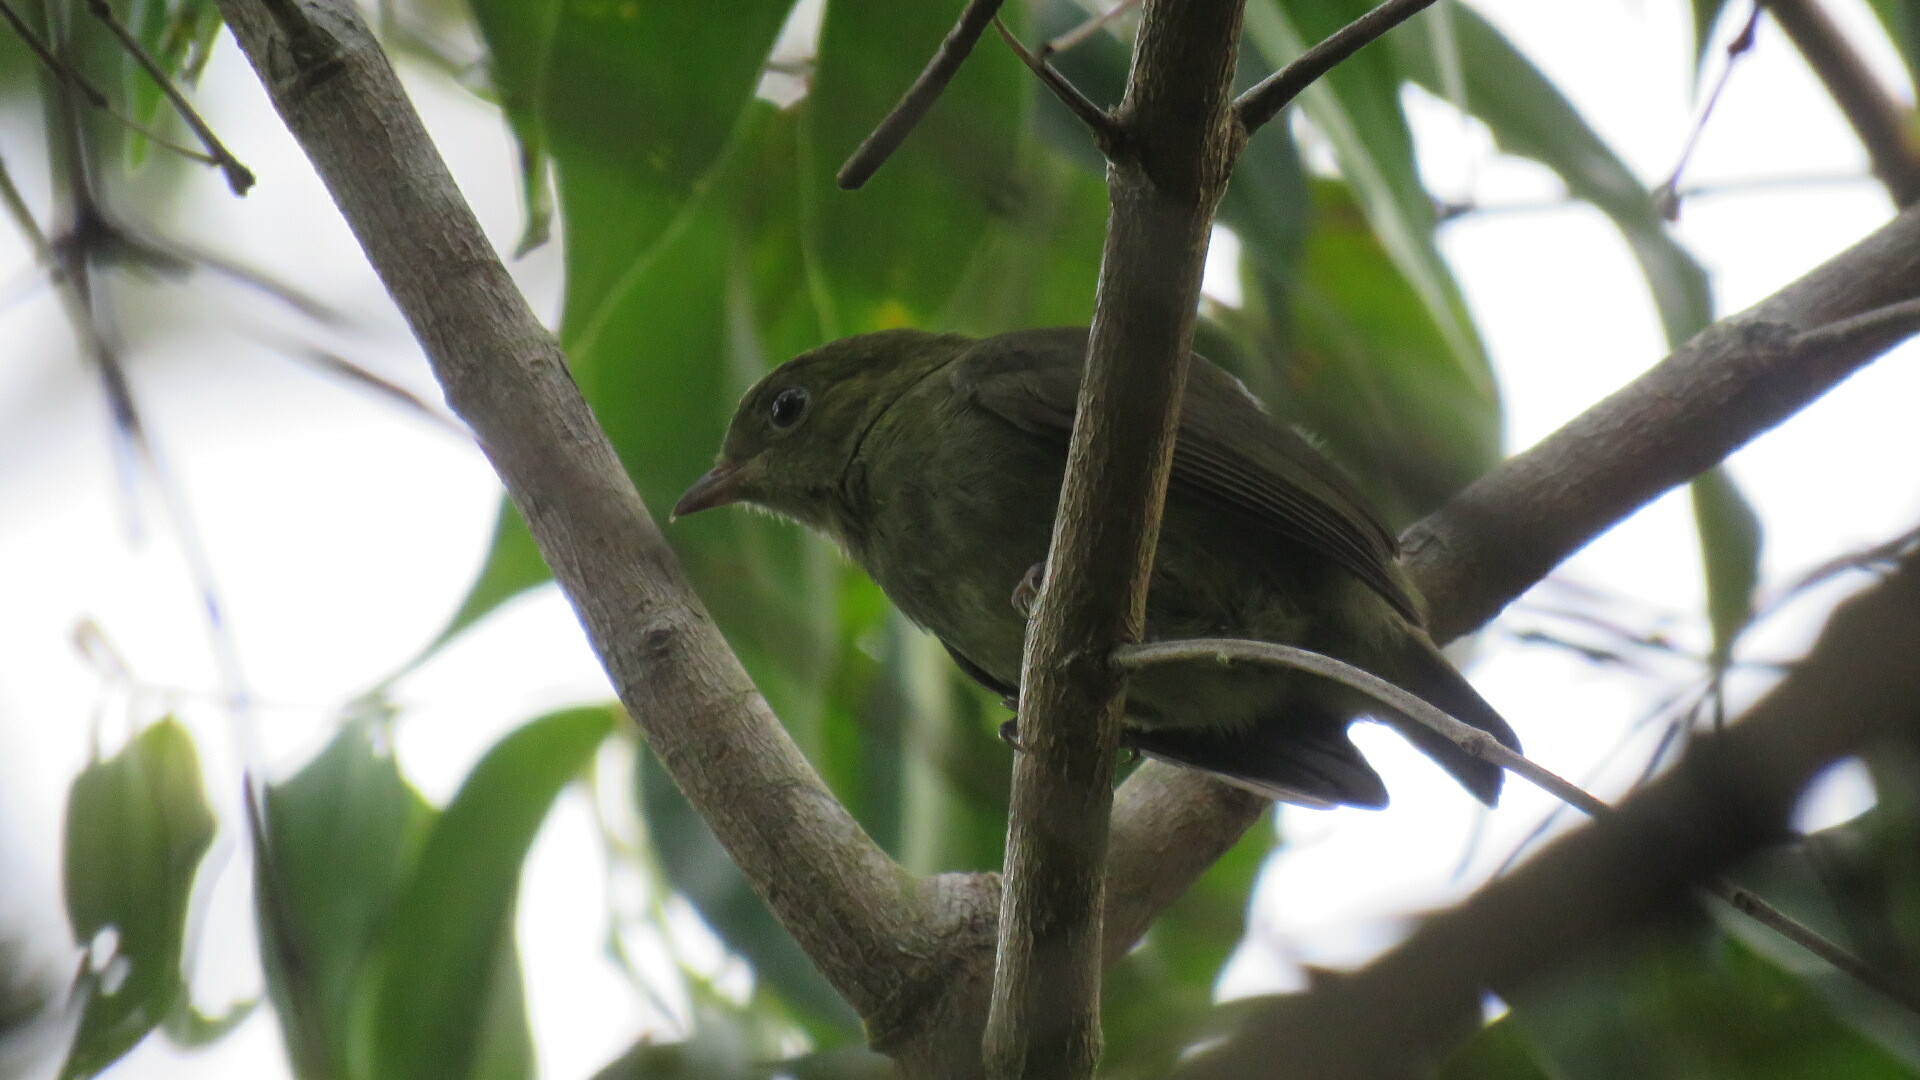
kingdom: Animalia
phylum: Chordata
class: Aves
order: Passeriformes
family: Pipridae
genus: Pipra
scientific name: Pipra mentalis
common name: Red-capped manakin
